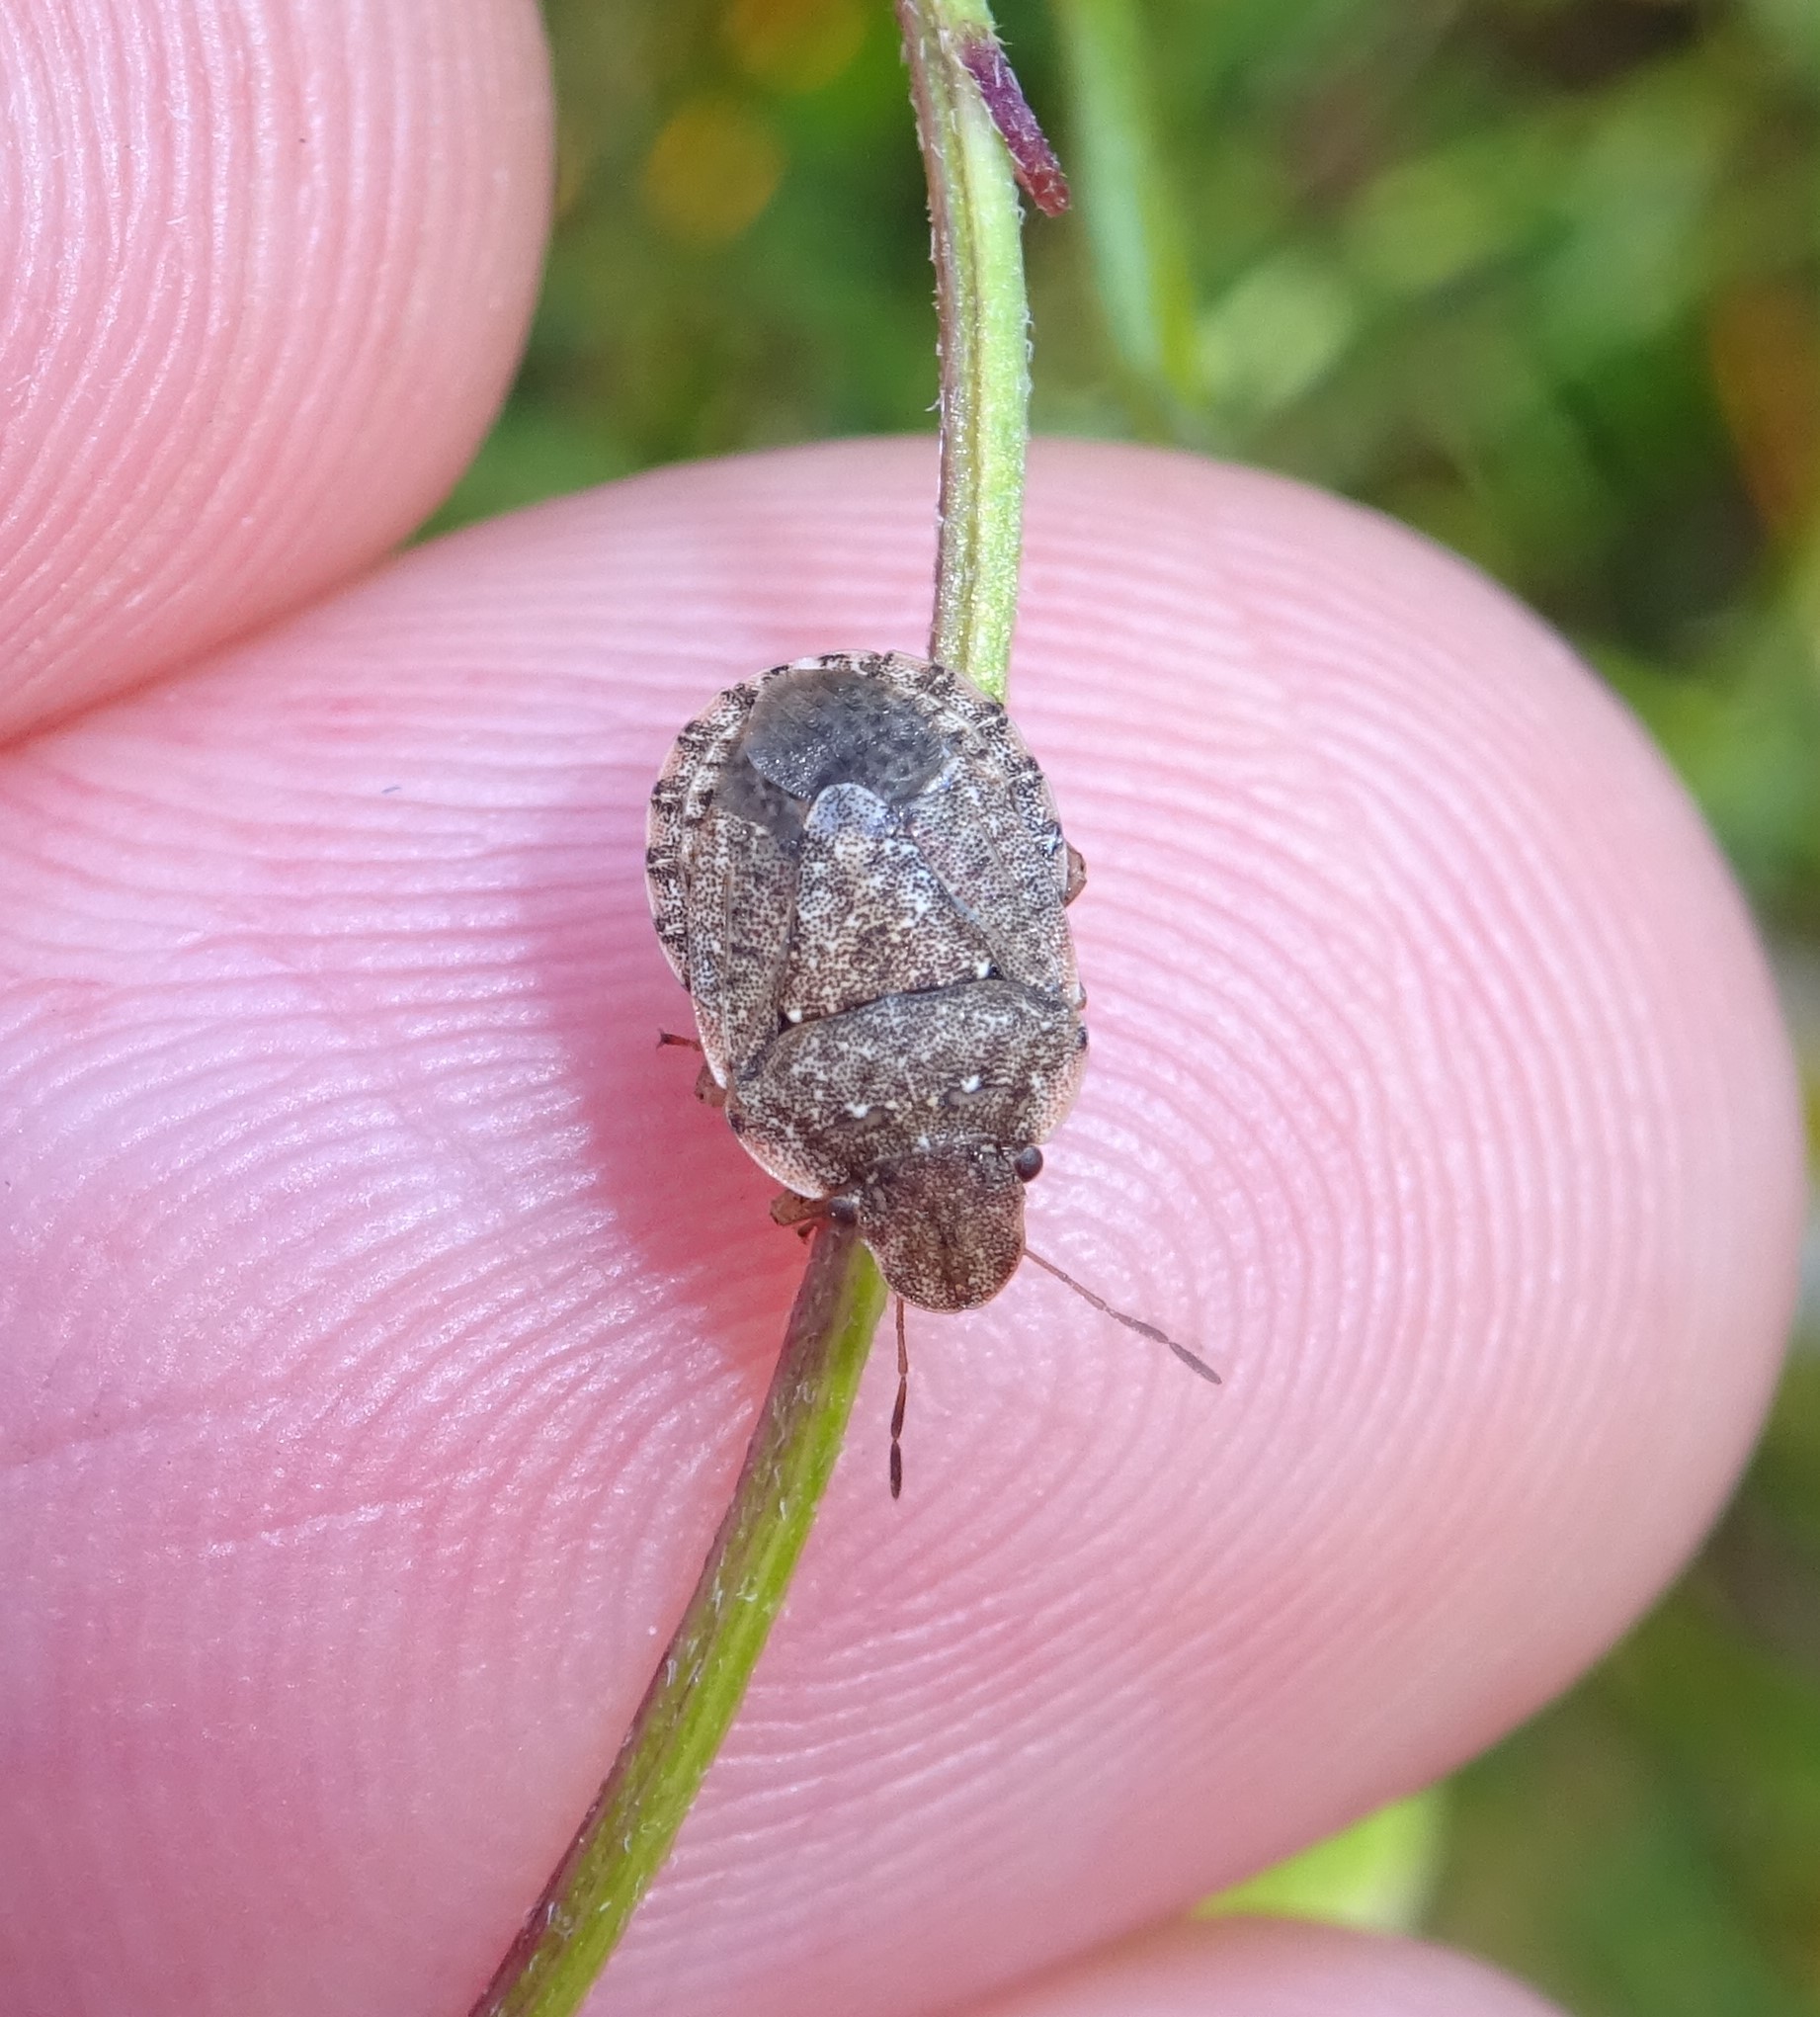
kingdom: Animalia
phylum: Arthropoda
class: Insecta
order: Hemiptera
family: Pentatomidae
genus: Sciocoris
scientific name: Sciocoris sideritidis
